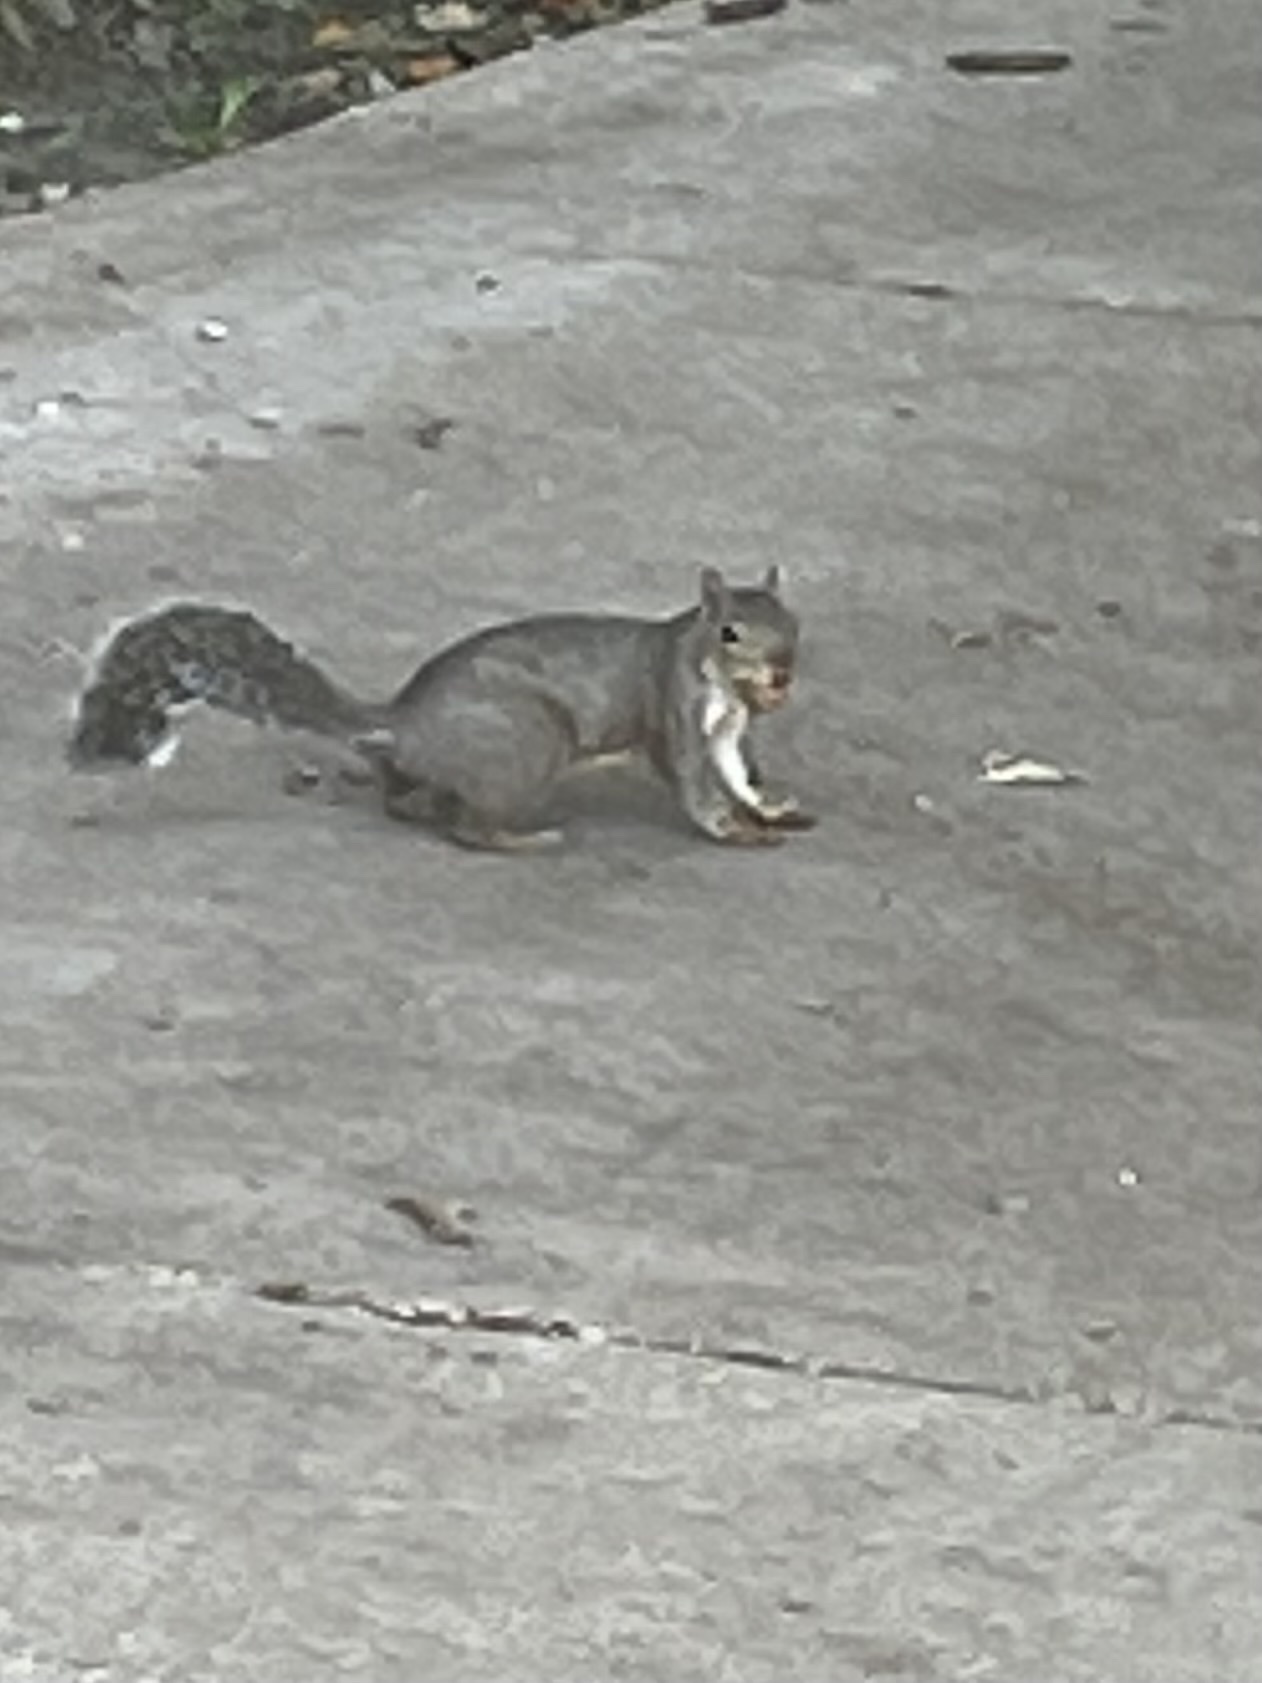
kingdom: Animalia
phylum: Chordata
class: Mammalia
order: Rodentia
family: Sciuridae
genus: Sciurus
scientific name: Sciurus carolinensis
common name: Eastern gray squirrel
